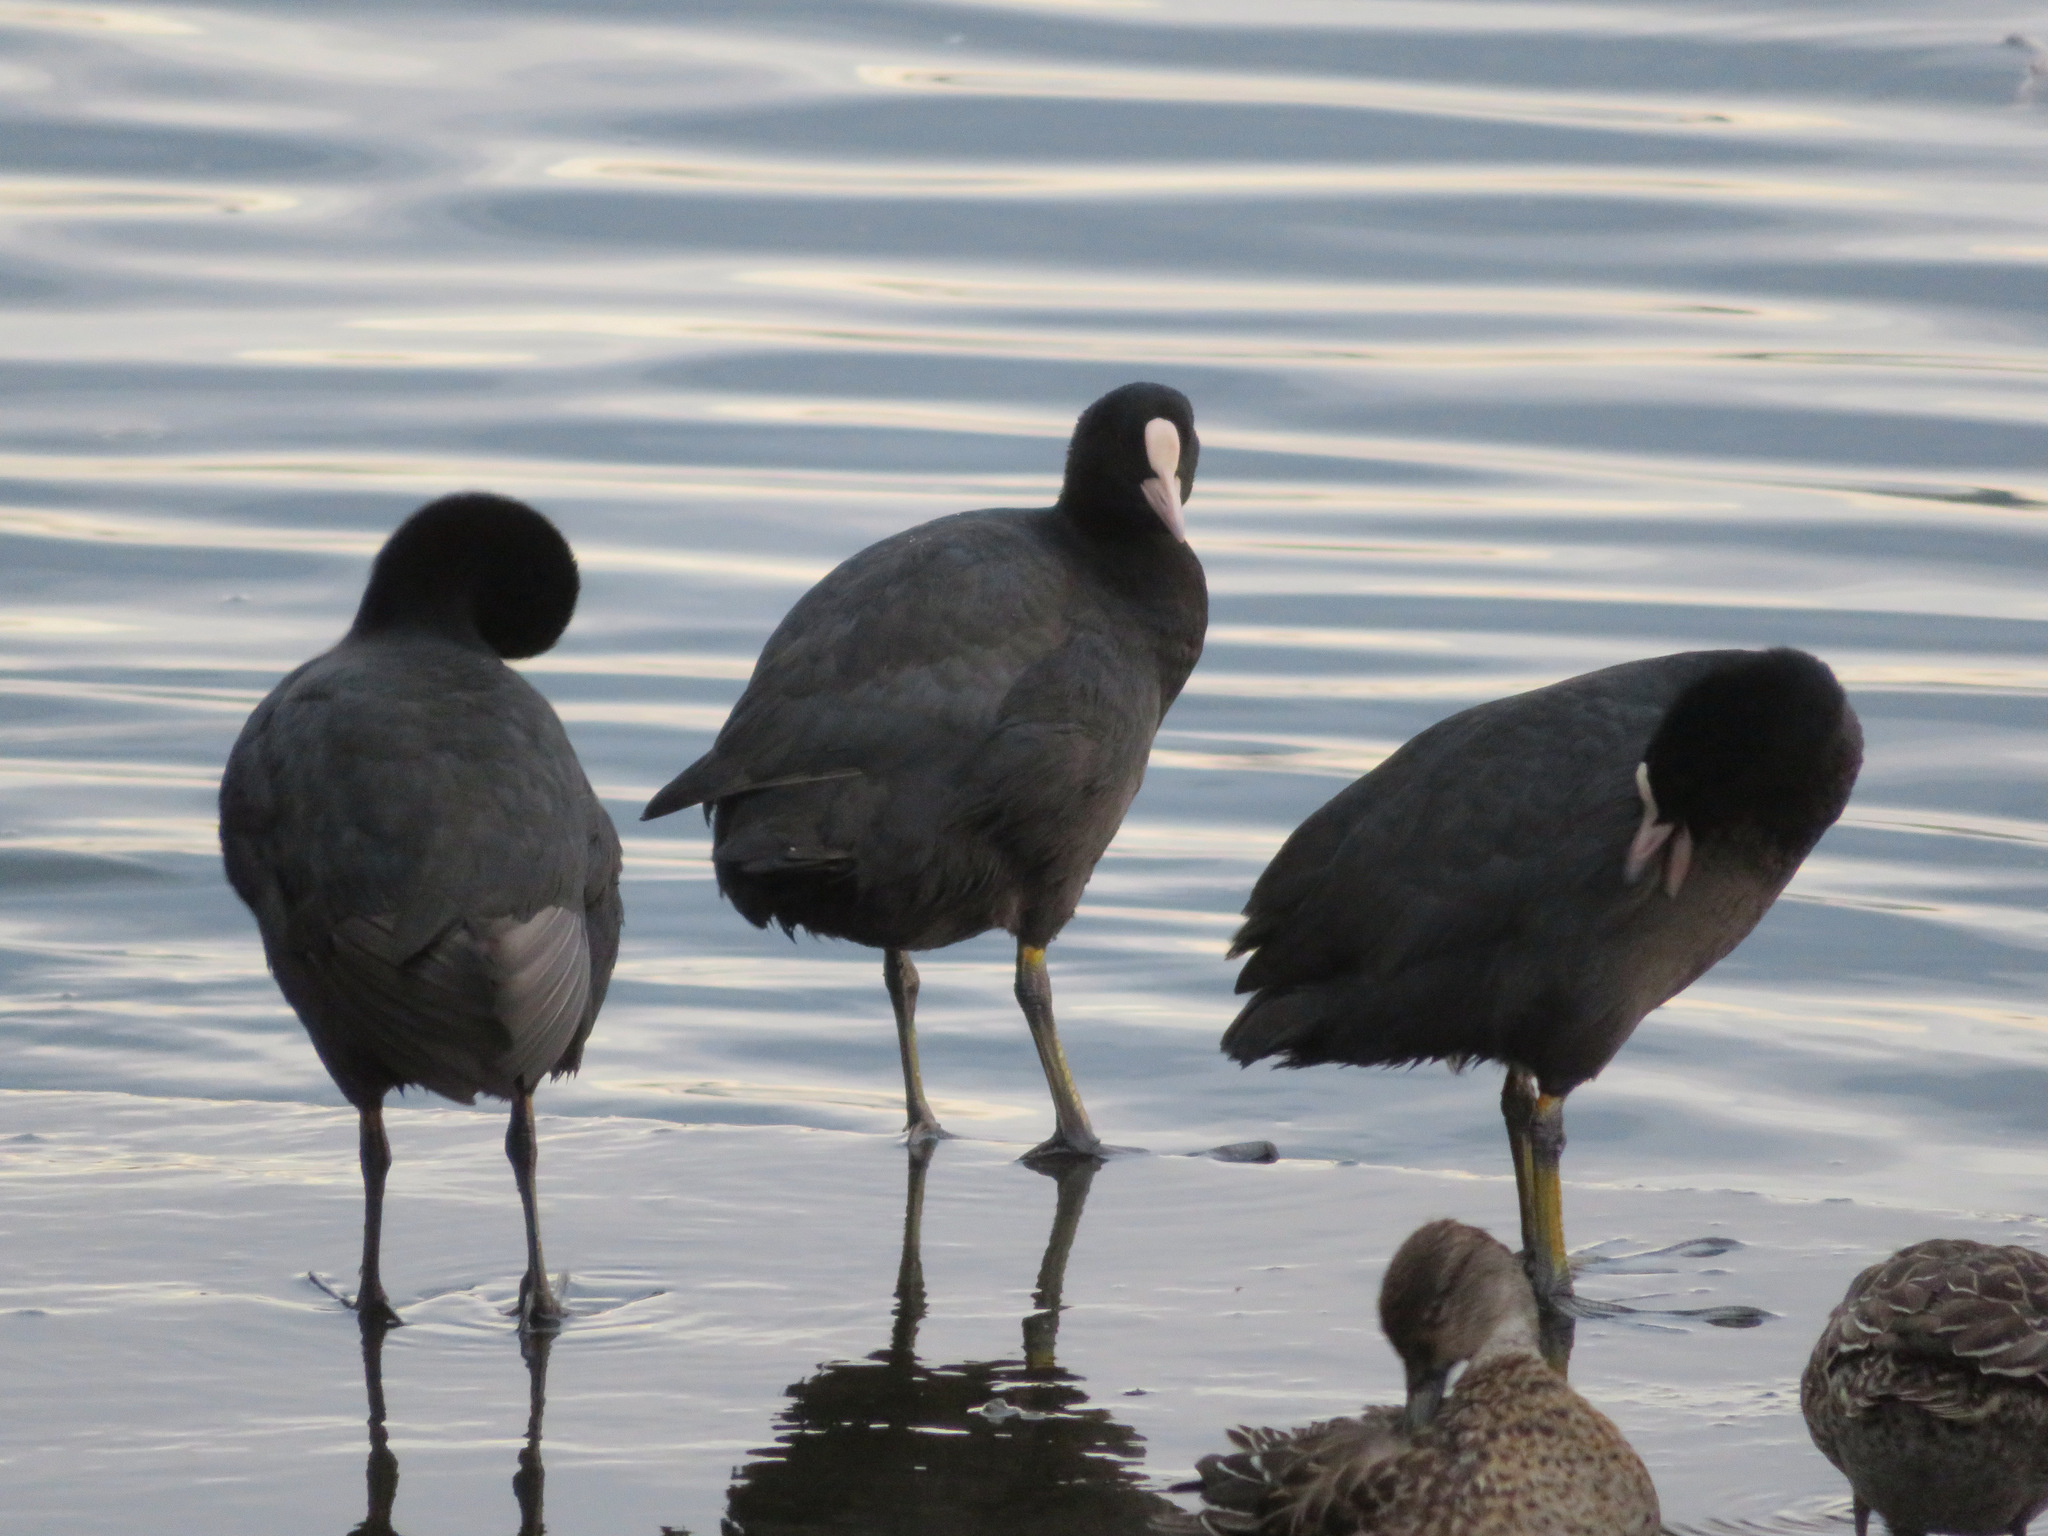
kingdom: Animalia
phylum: Chordata
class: Aves
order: Gruiformes
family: Rallidae
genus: Fulica
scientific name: Fulica atra
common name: Eurasian coot
